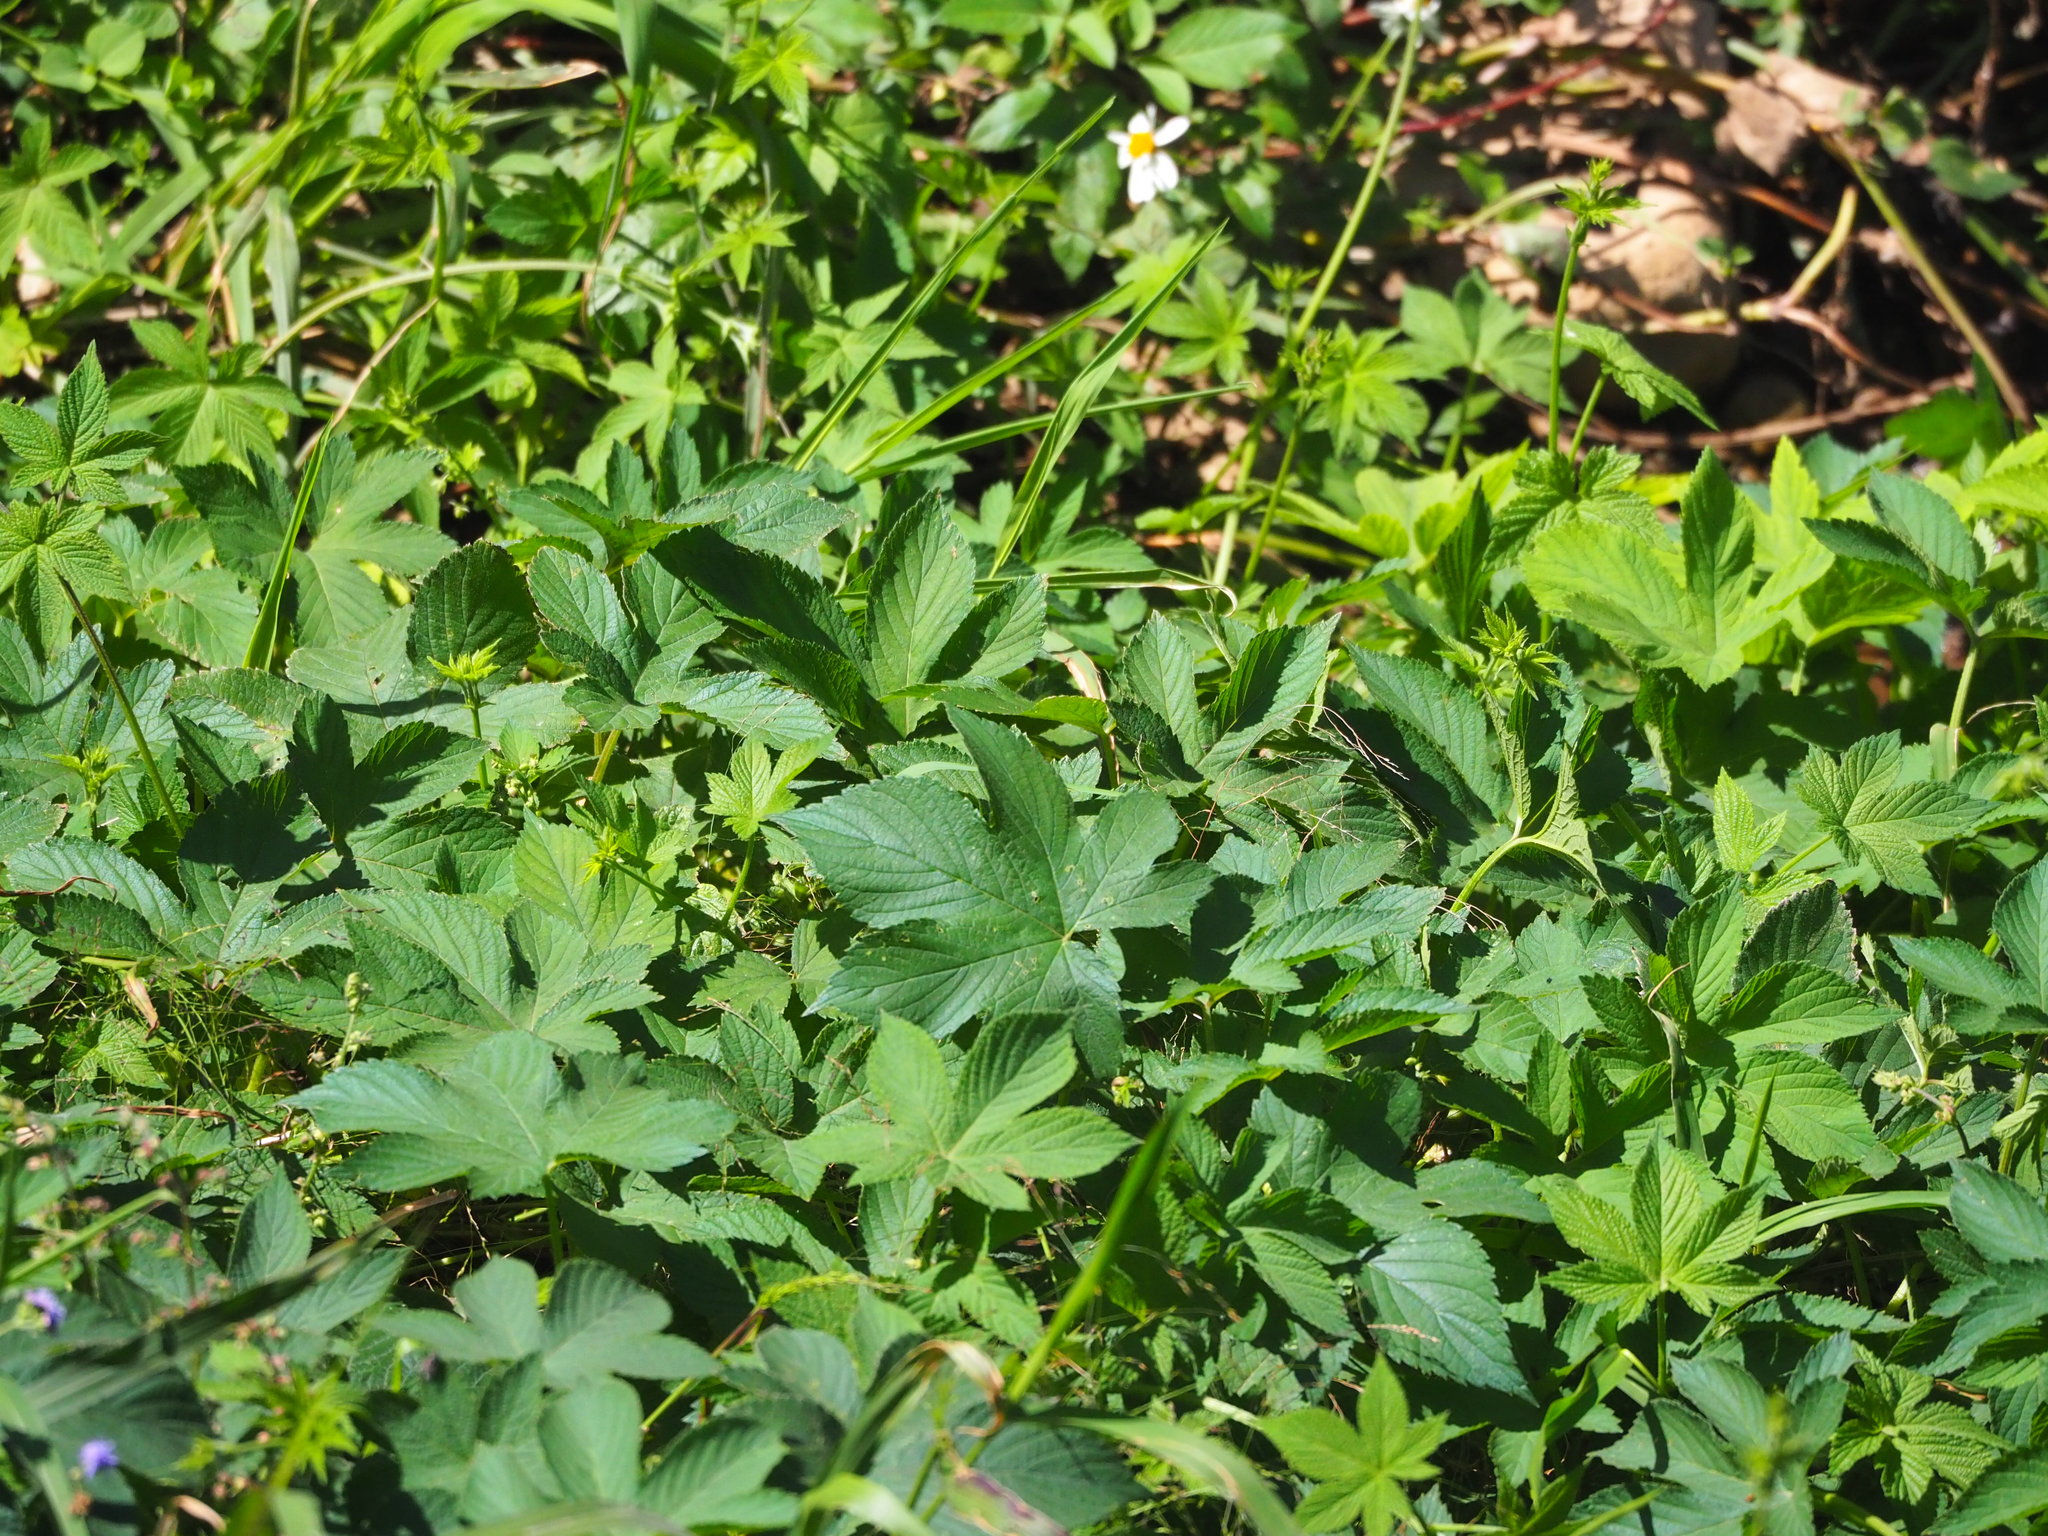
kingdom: Plantae
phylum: Tracheophyta
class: Magnoliopsida
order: Rosales
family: Cannabaceae
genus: Humulus
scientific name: Humulus scandens
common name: Japanese hop
